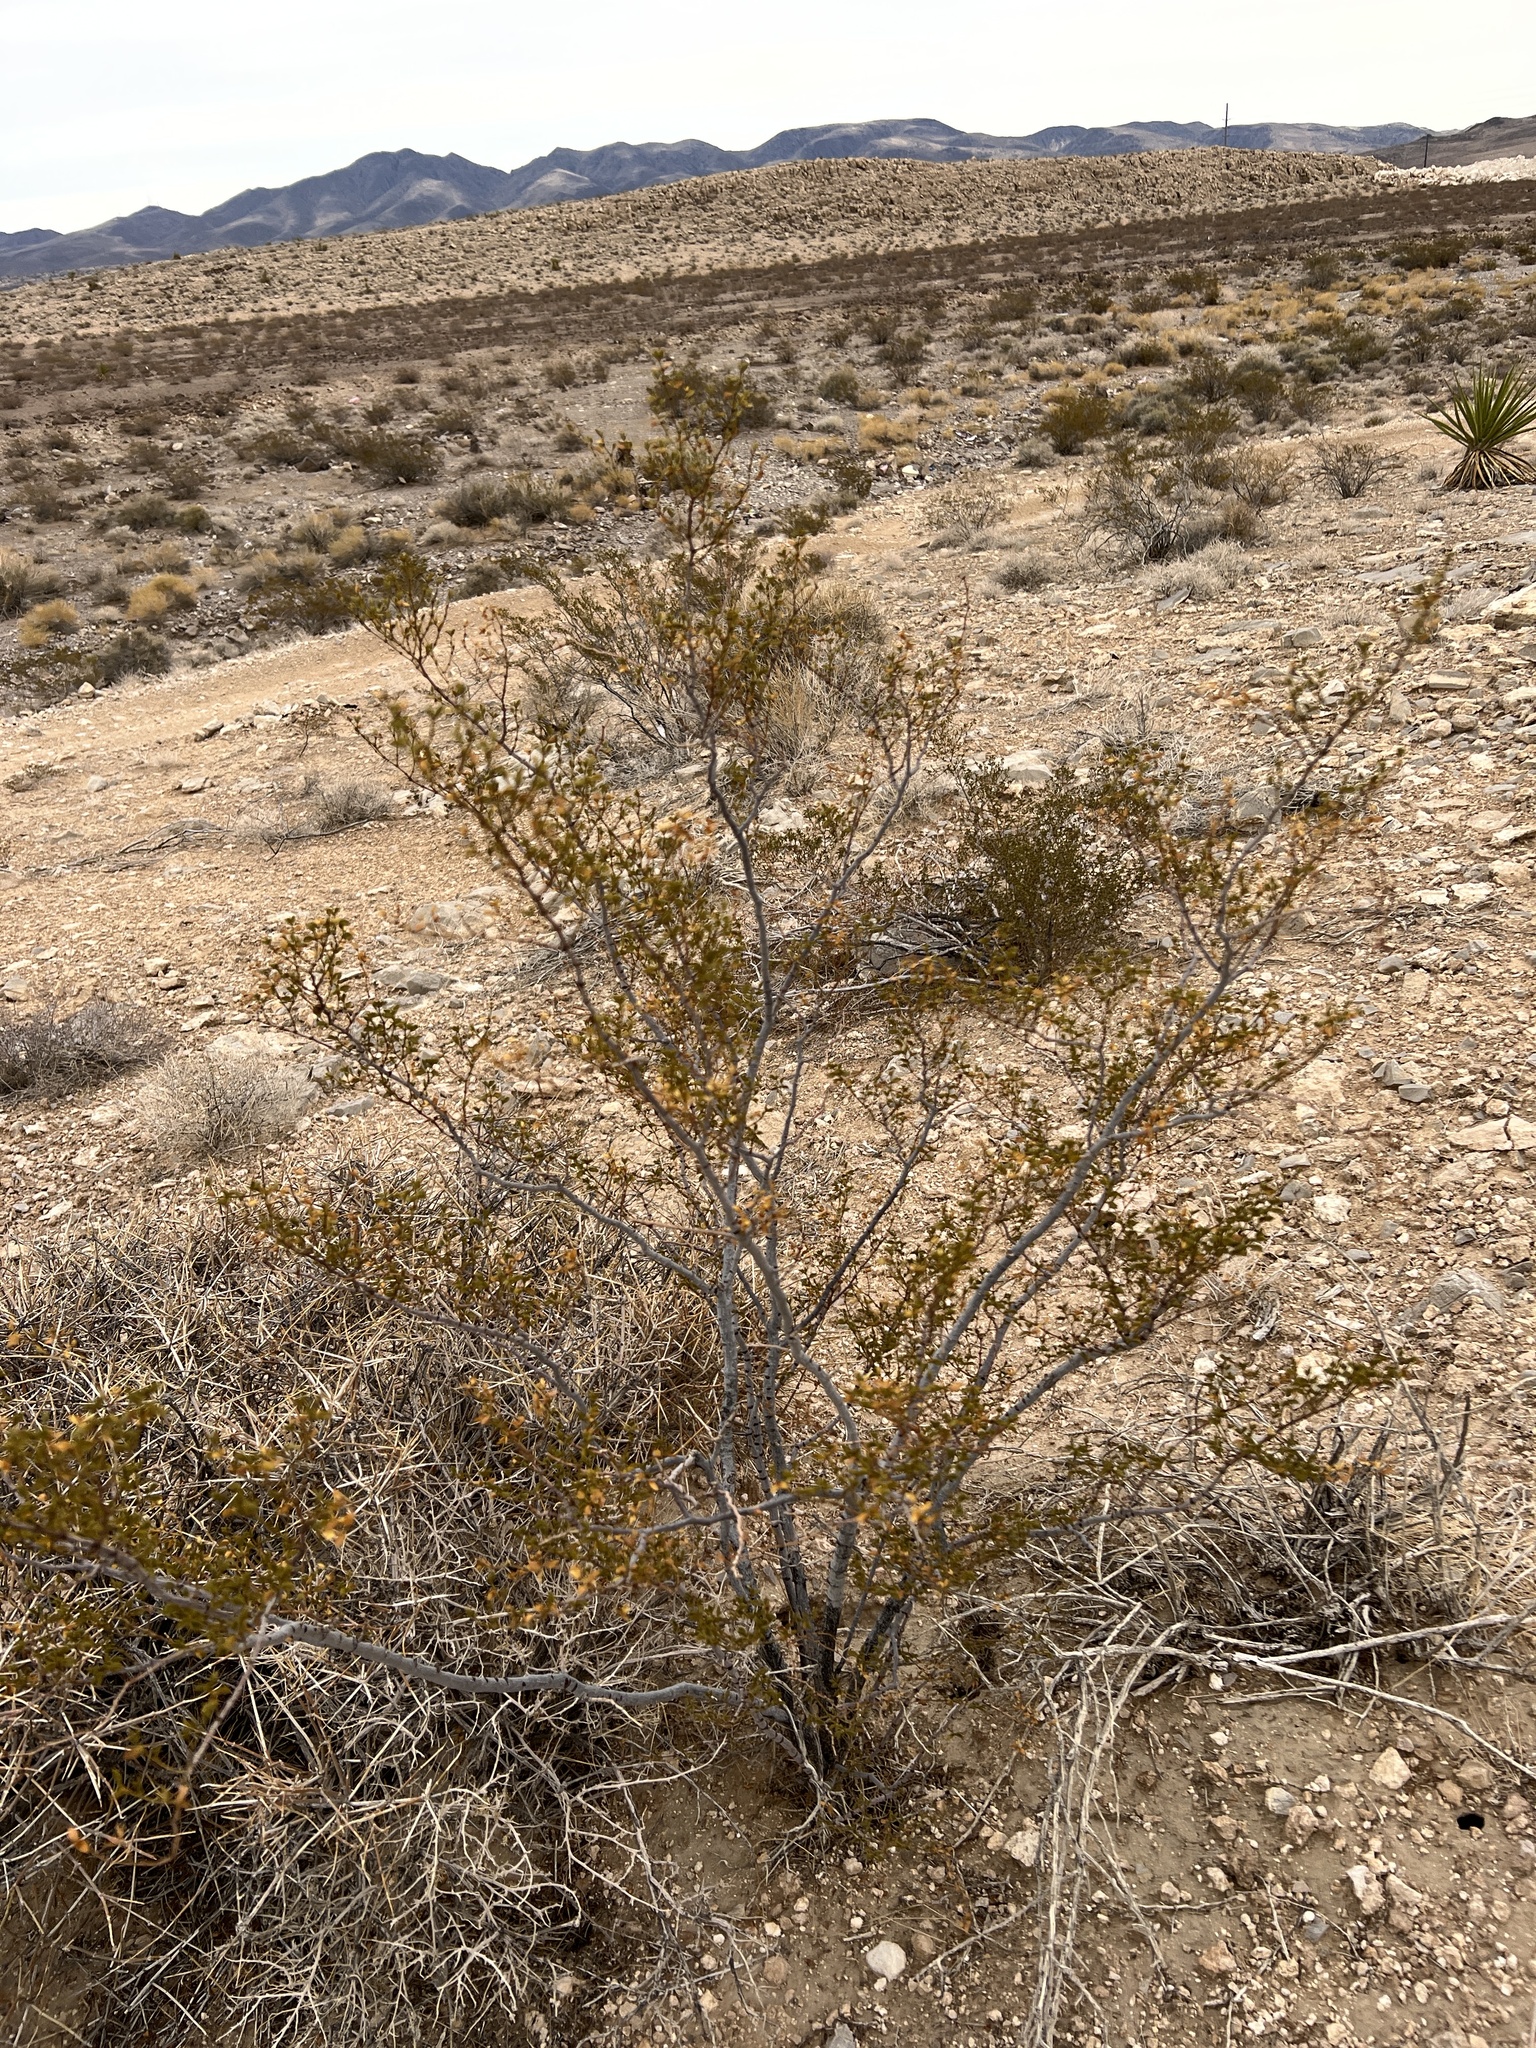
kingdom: Plantae
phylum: Tracheophyta
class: Magnoliopsida
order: Zygophyllales
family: Zygophyllaceae
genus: Larrea
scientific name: Larrea tridentata
